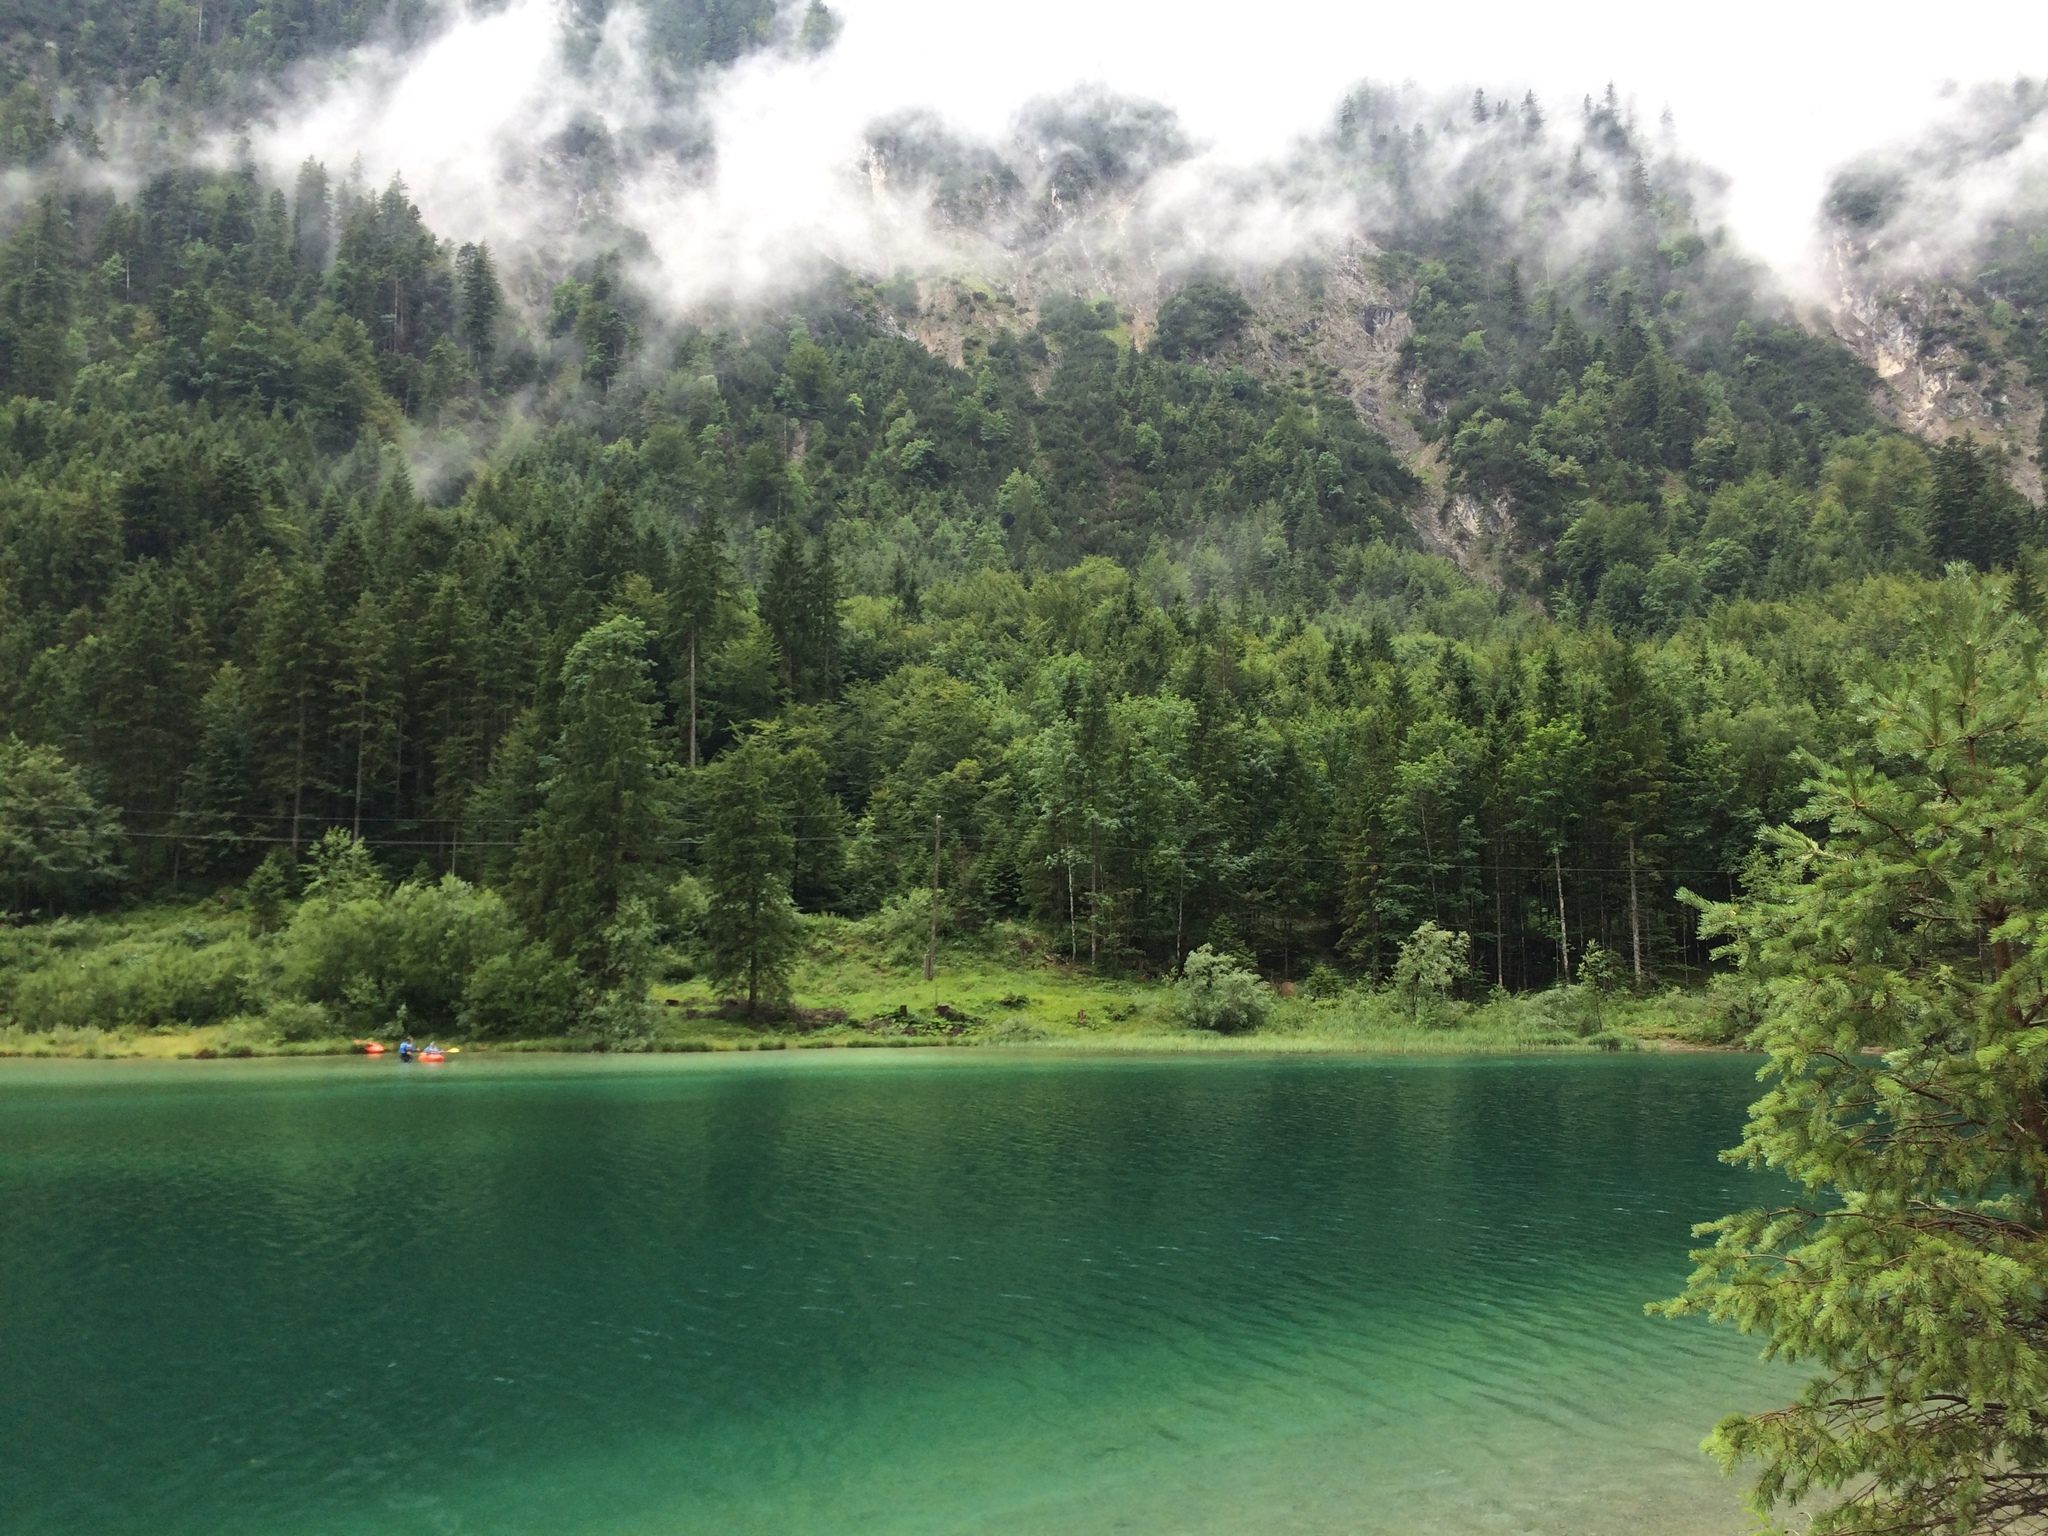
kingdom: Plantae
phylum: Tracheophyta
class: Pinopsida
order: Pinales
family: Pinaceae
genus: Picea
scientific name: Picea abies
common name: Norway spruce
